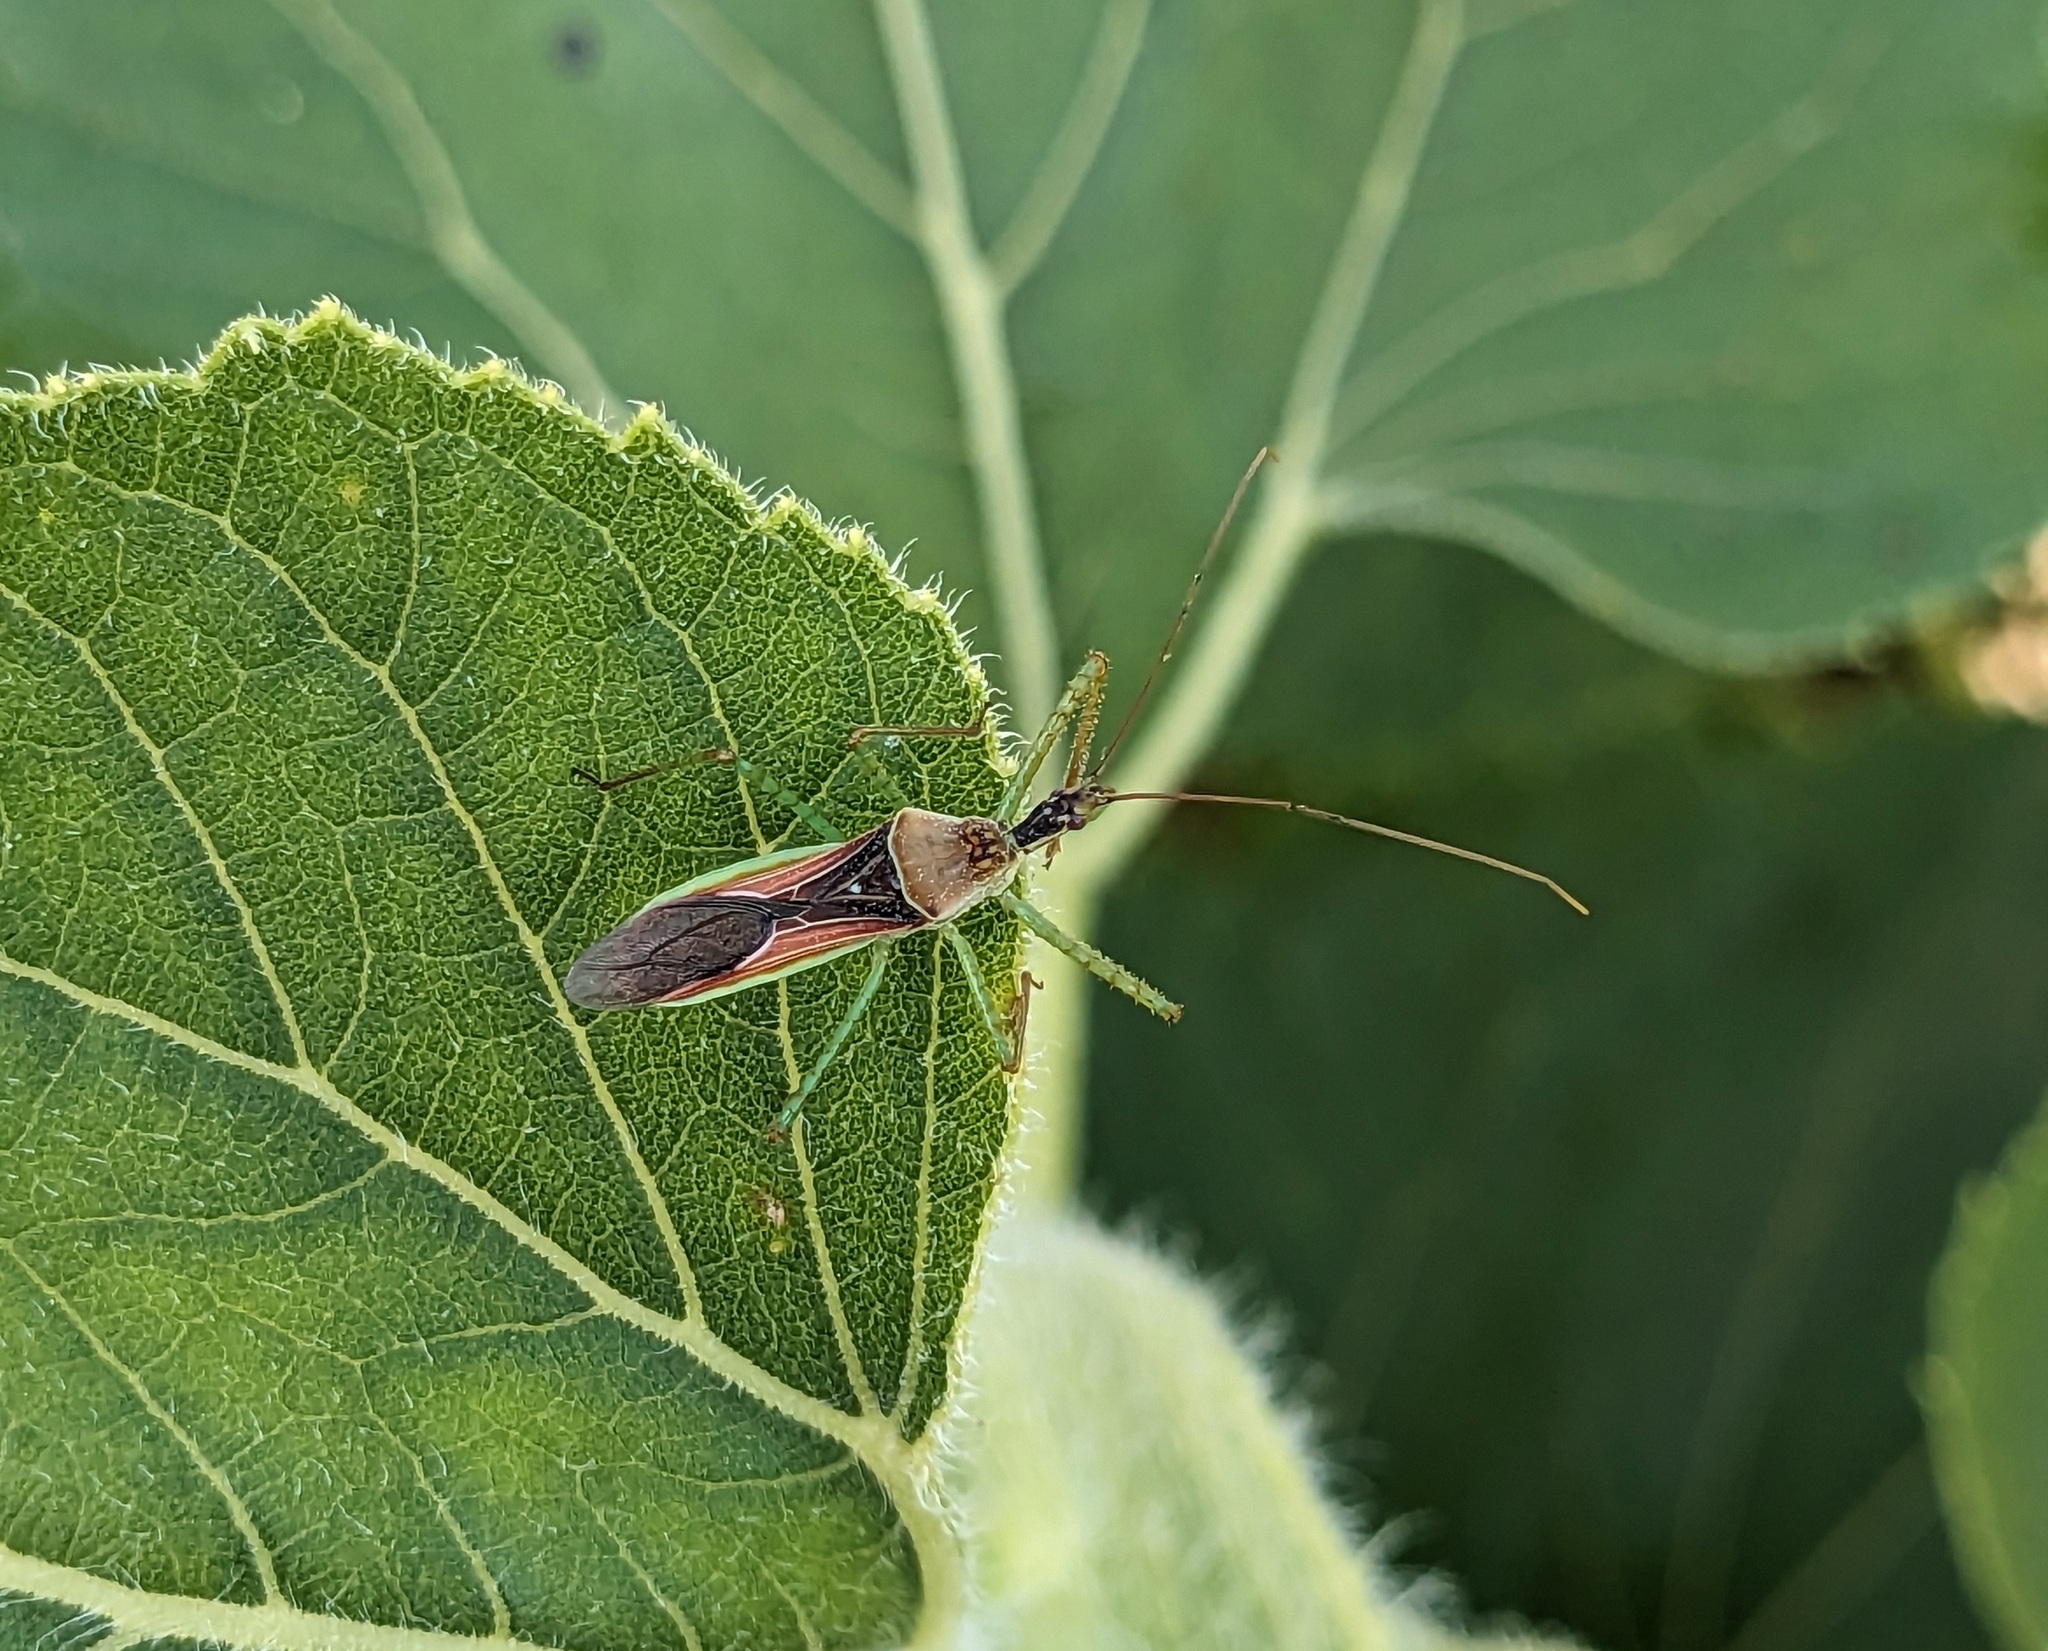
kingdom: Animalia
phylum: Arthropoda
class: Insecta
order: Hemiptera
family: Reduviidae
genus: Zelus
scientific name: Zelus renardii
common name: Assassin bug
